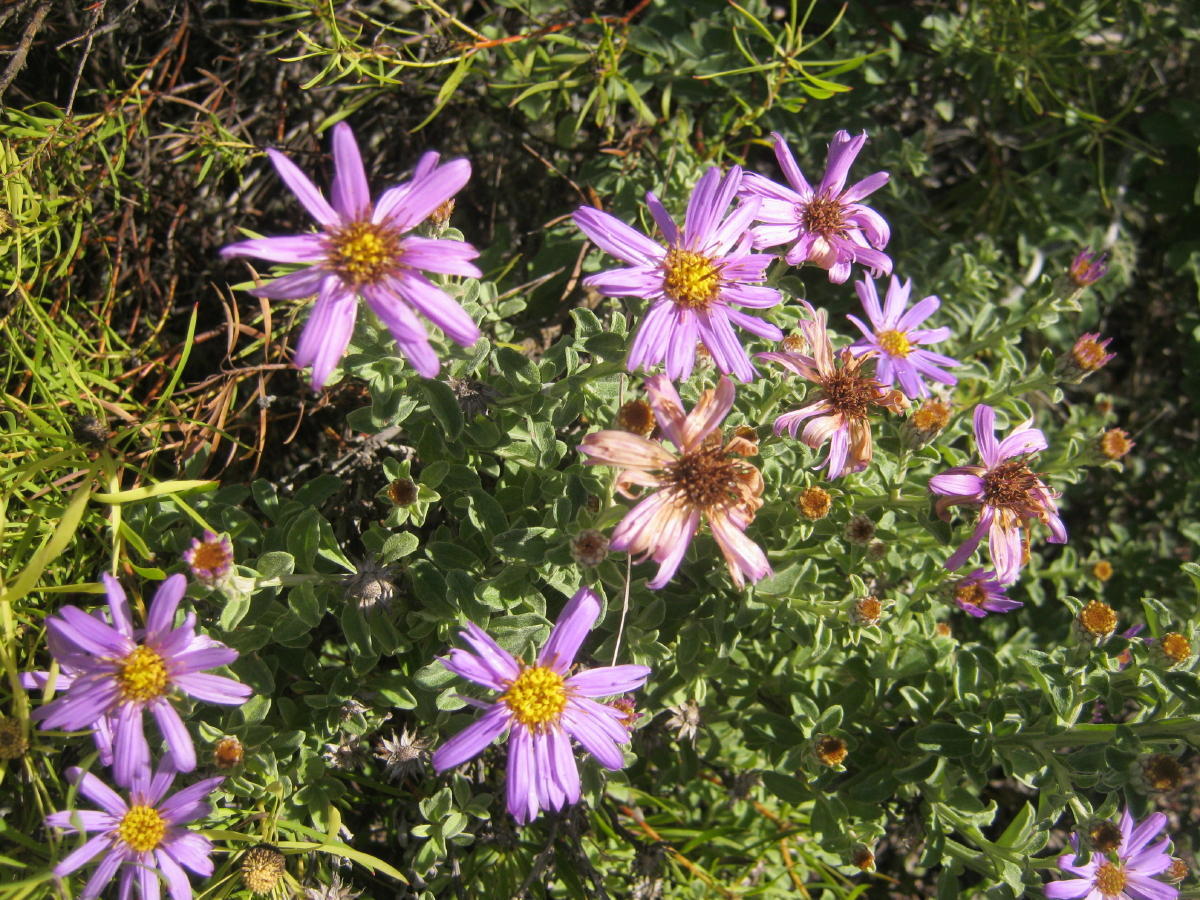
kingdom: Plantae
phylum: Tracheophyta
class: Magnoliopsida
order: Asterales
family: Asteraceae
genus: Printzia
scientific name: Printzia polifolia
